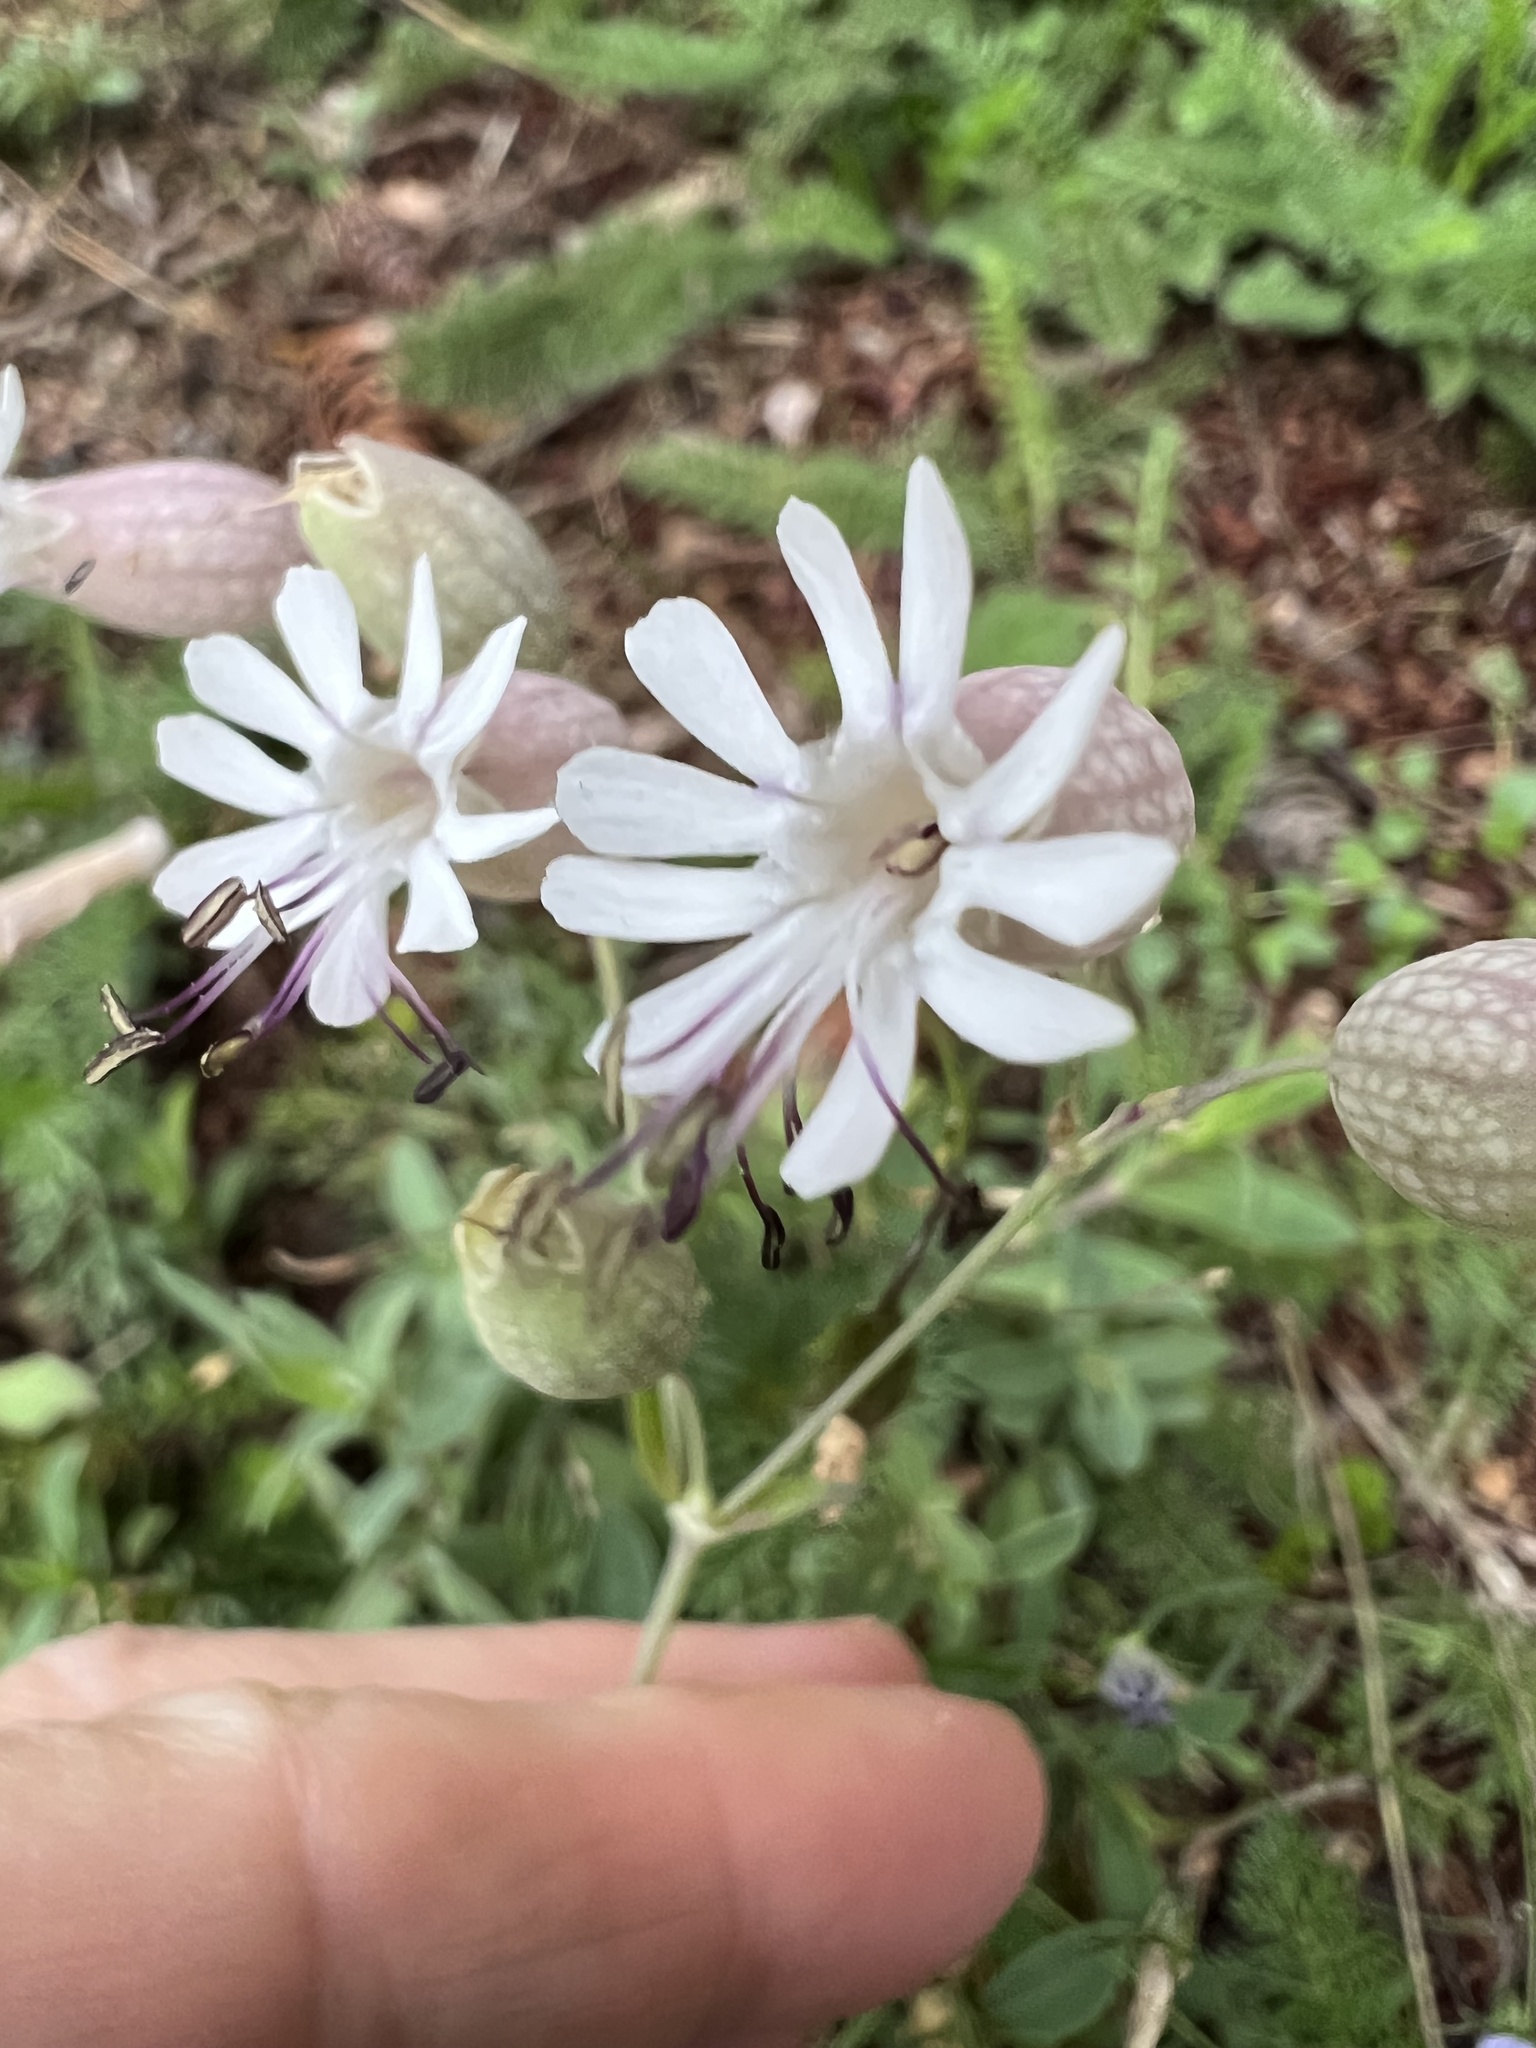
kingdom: Plantae
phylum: Tracheophyta
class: Magnoliopsida
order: Caryophyllales
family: Caryophyllaceae
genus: Silene
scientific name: Silene vulgaris
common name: Bladder campion
